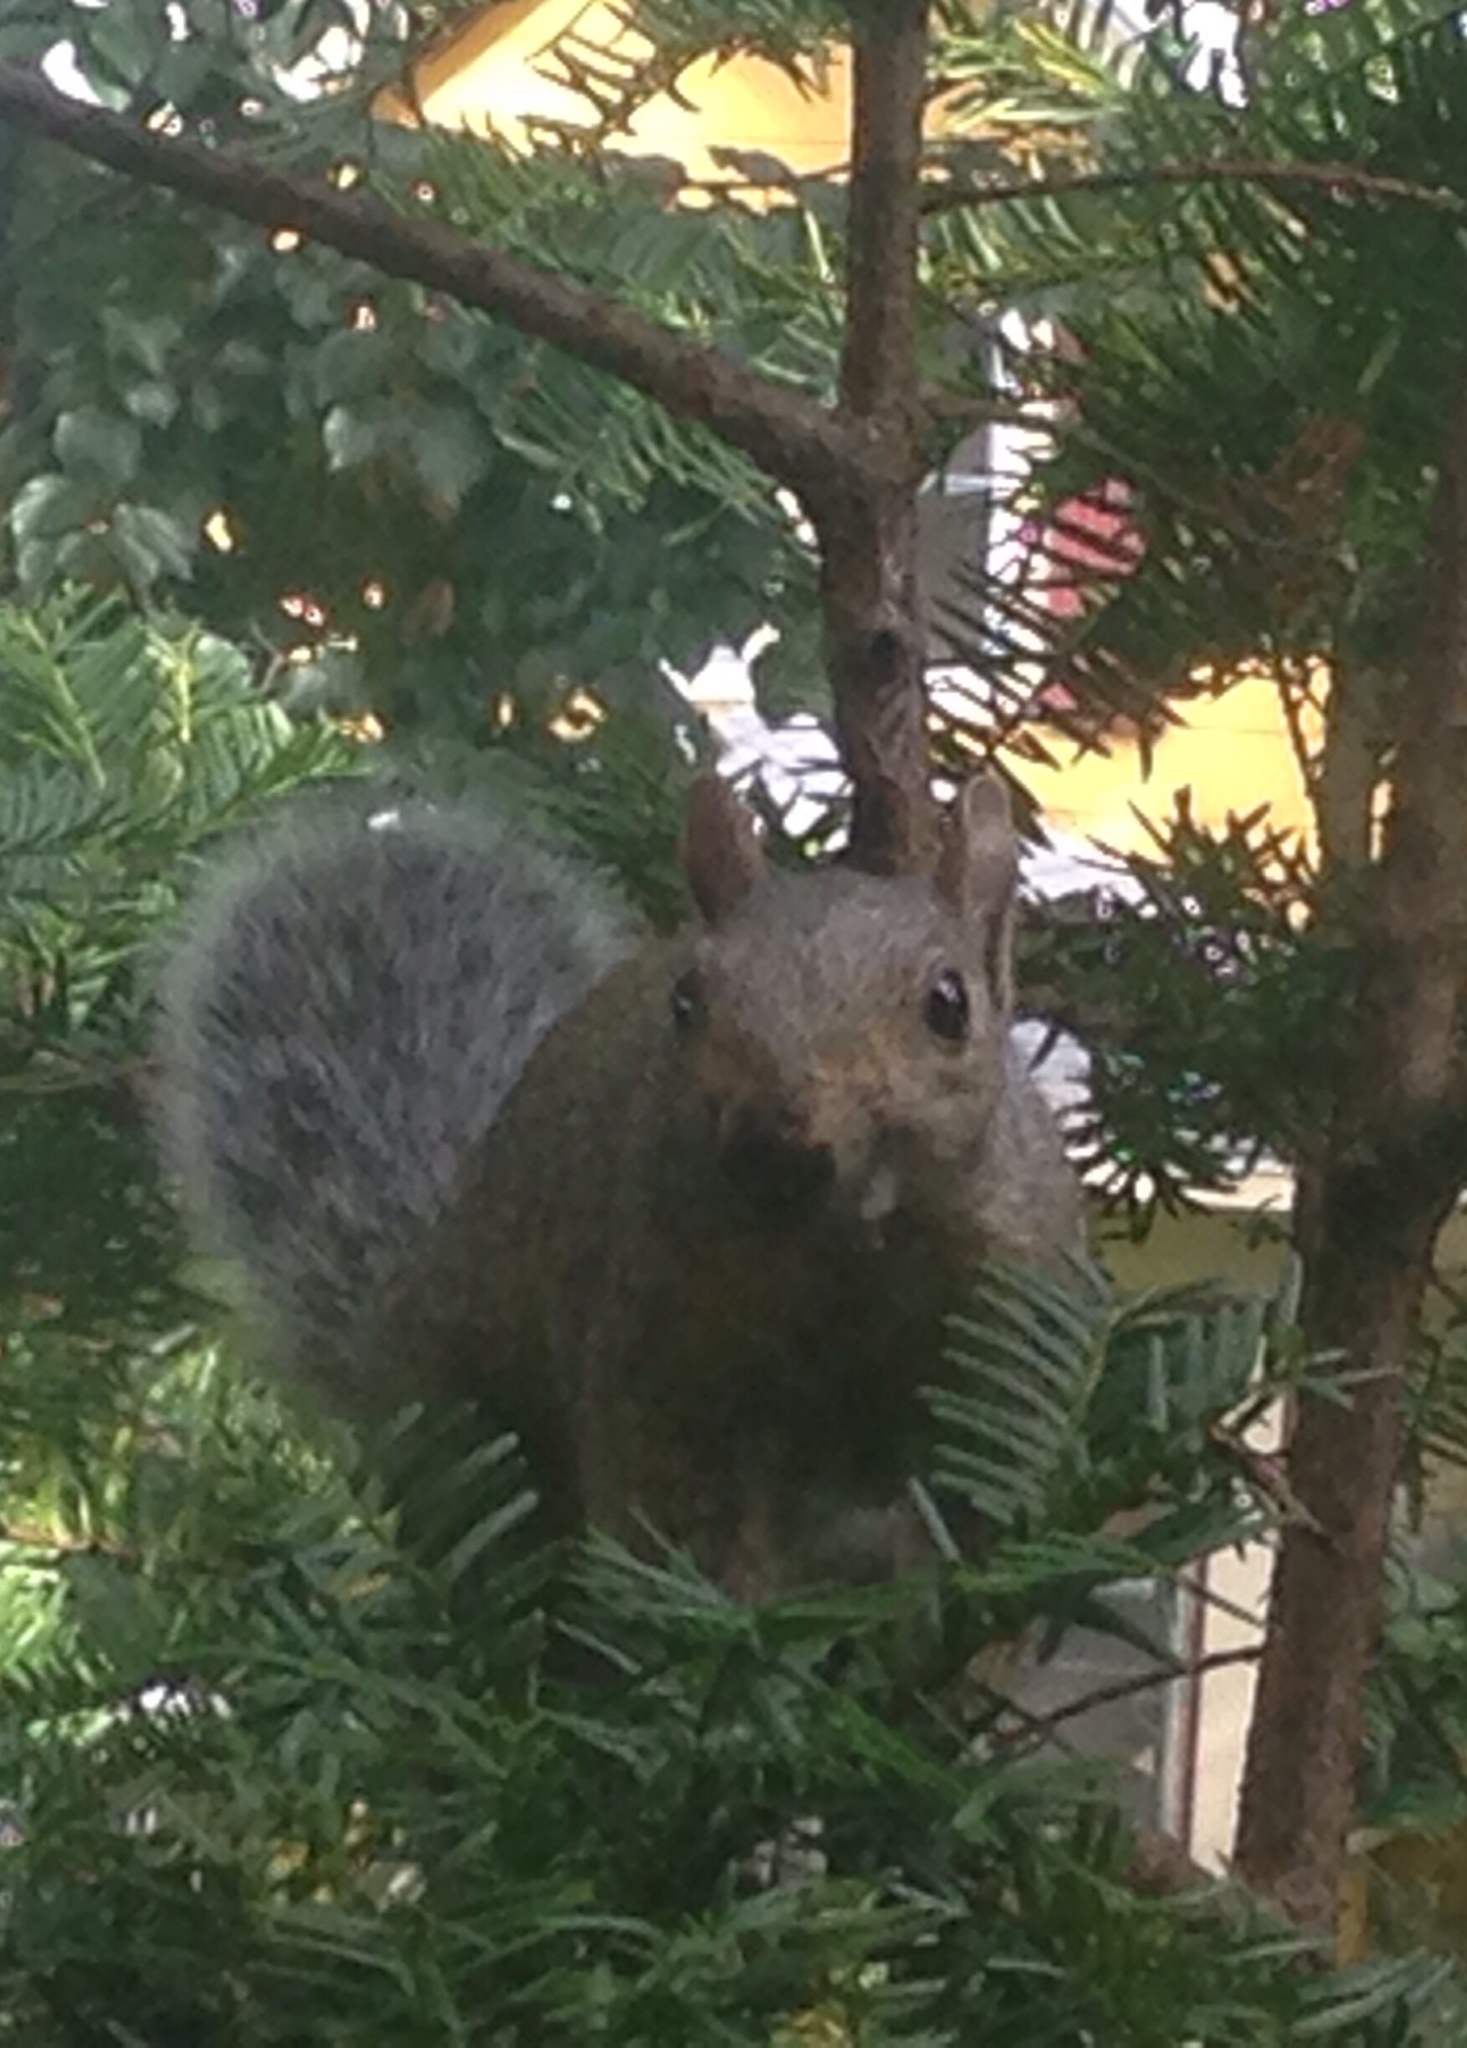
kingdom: Animalia
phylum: Chordata
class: Mammalia
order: Rodentia
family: Sciuridae
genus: Sciurus
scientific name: Sciurus carolinensis
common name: Eastern gray squirrel
